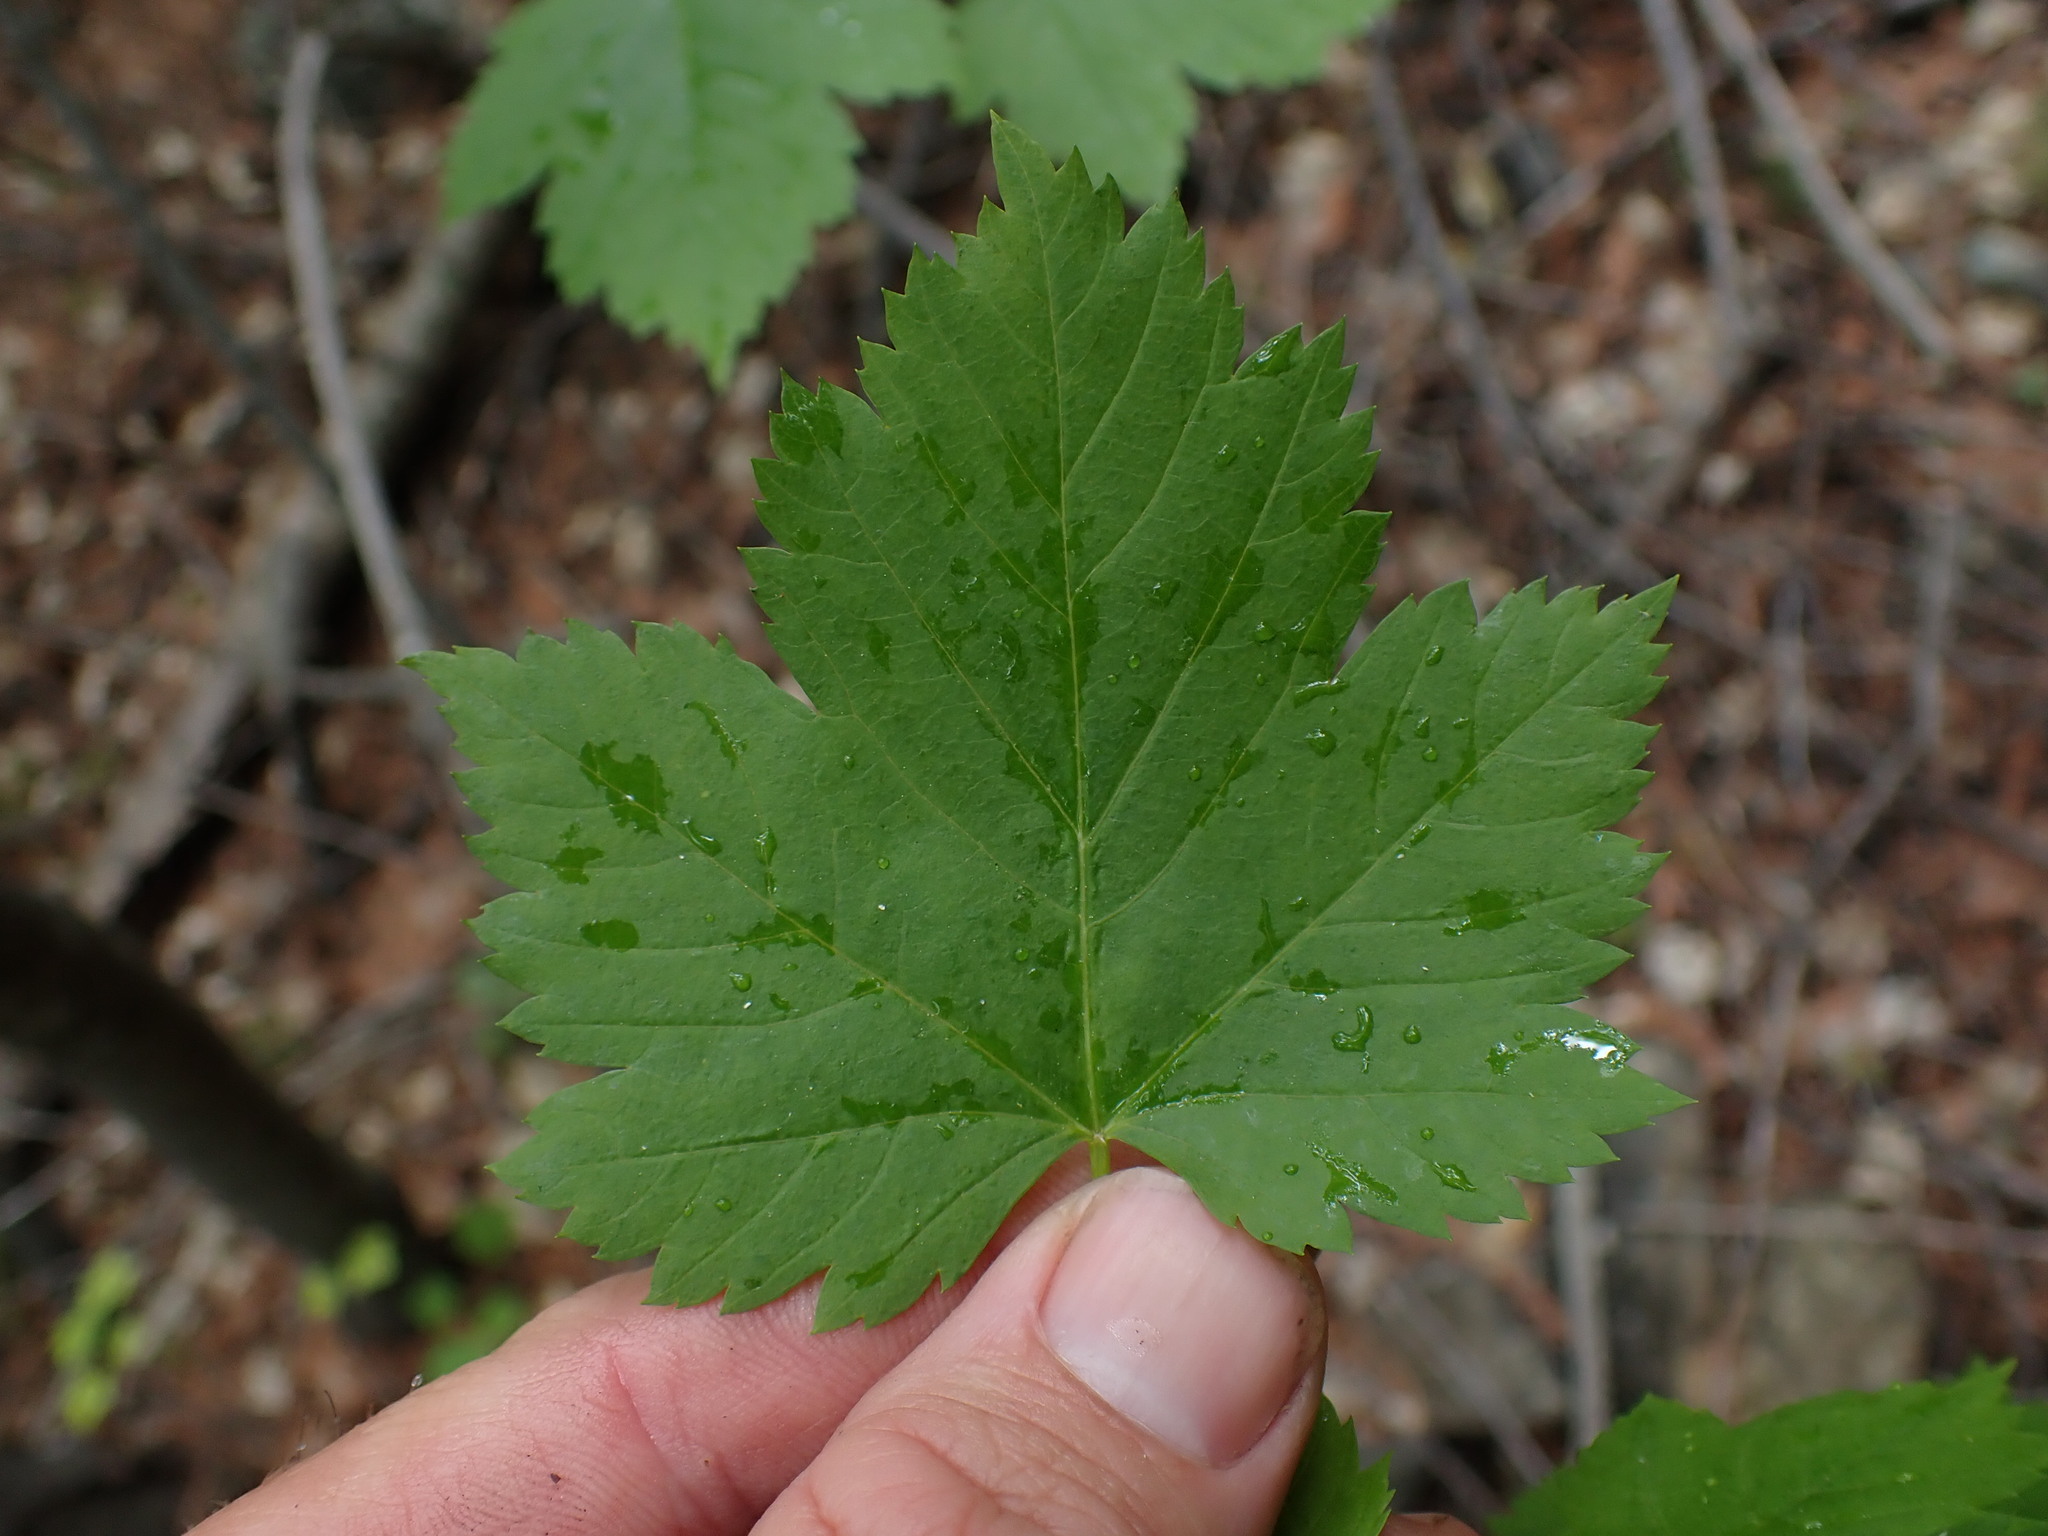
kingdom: Plantae
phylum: Tracheophyta
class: Magnoliopsida
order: Sapindales
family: Sapindaceae
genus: Acer
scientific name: Acer glabrum
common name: Rocky mountain maple
